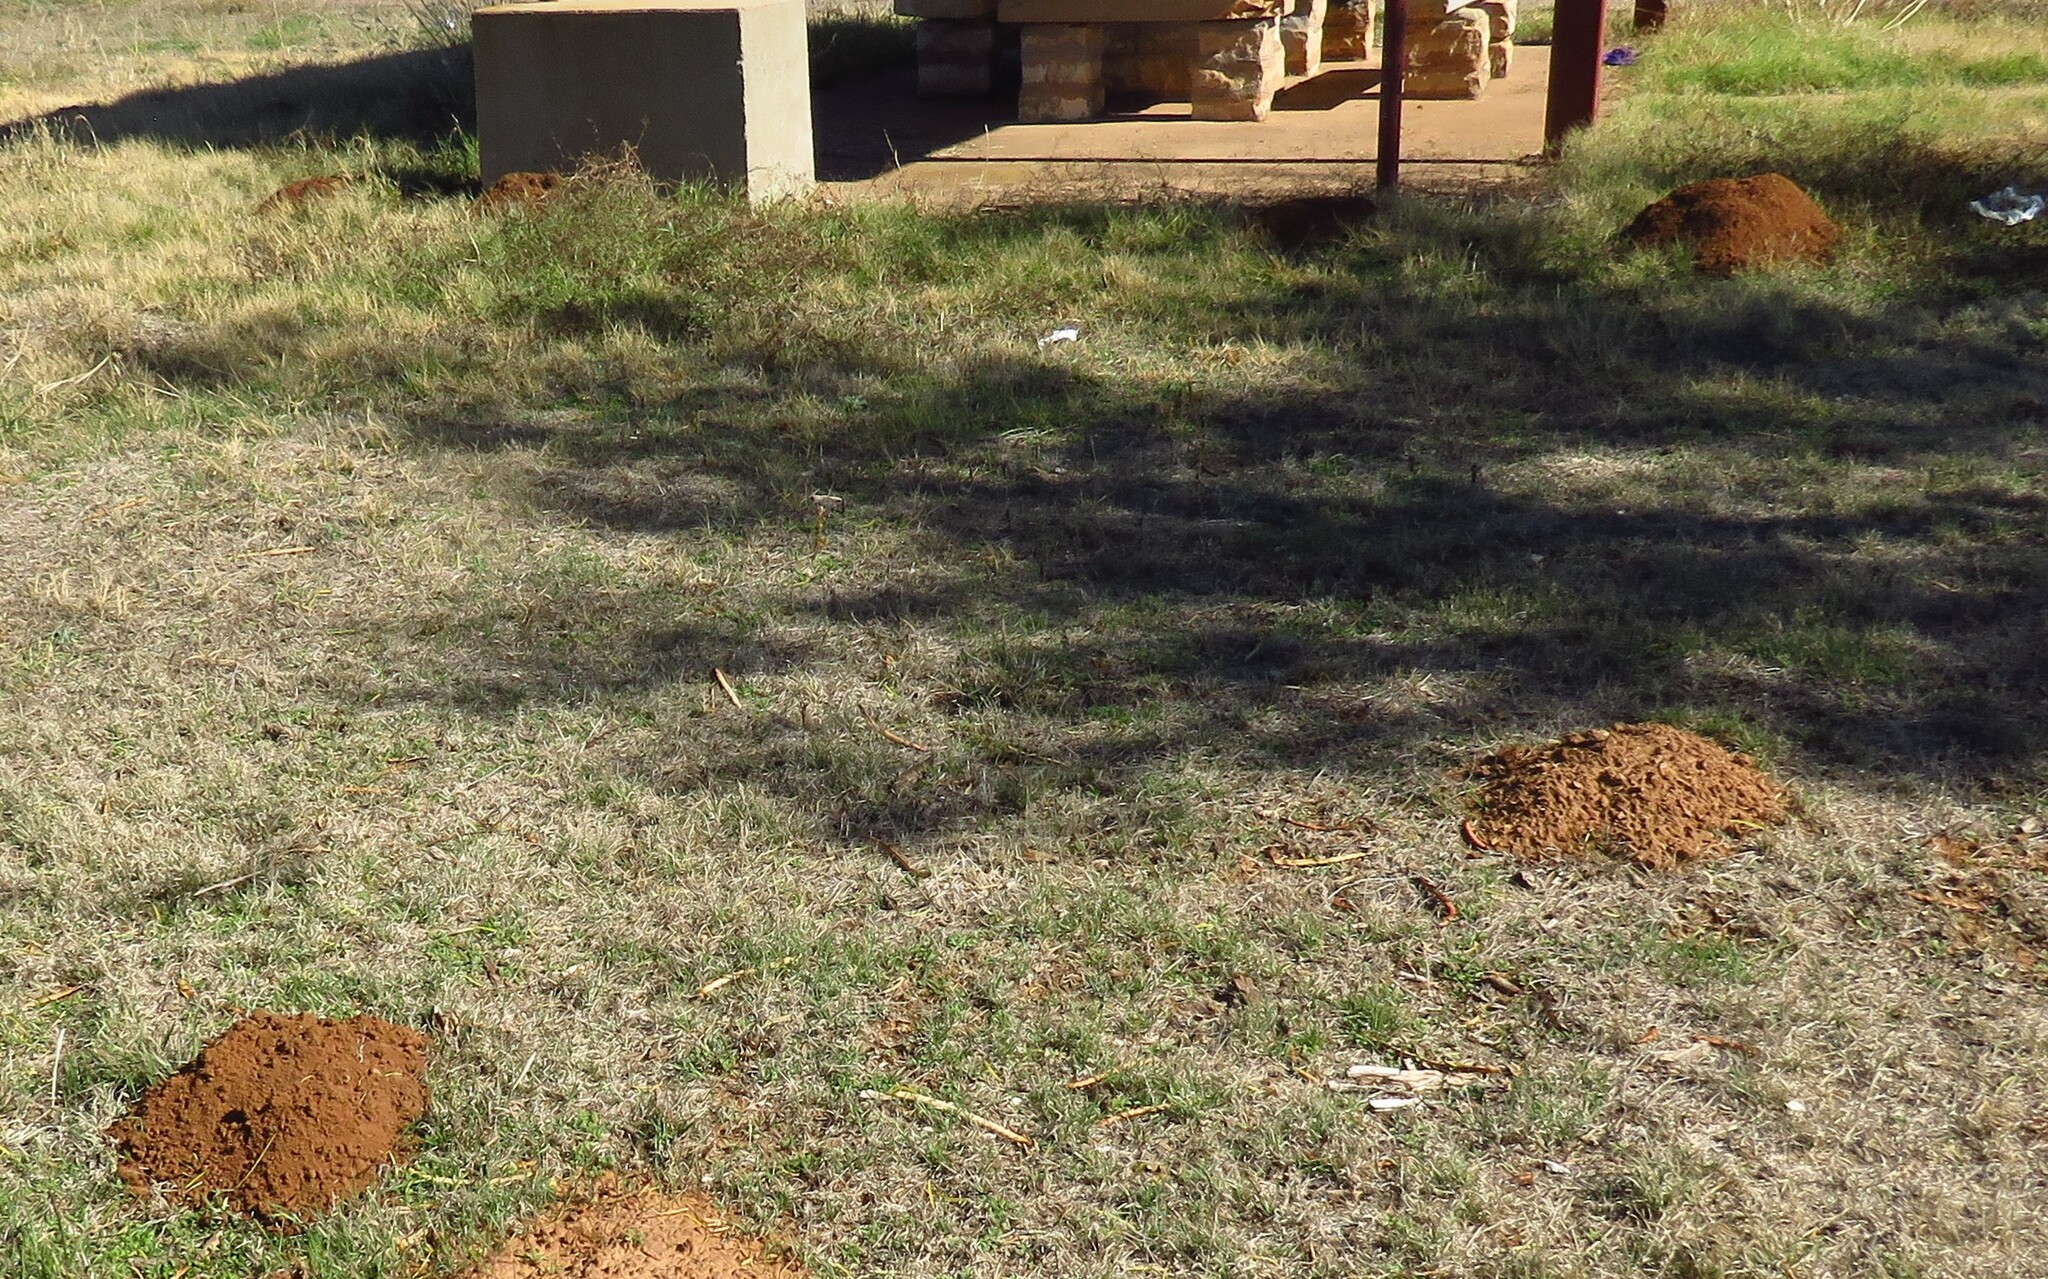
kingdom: Animalia
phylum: Chordata
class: Mammalia
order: Rodentia
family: Geomyidae
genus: Geomys
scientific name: Geomys bursarius
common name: Plains pocket gopher
